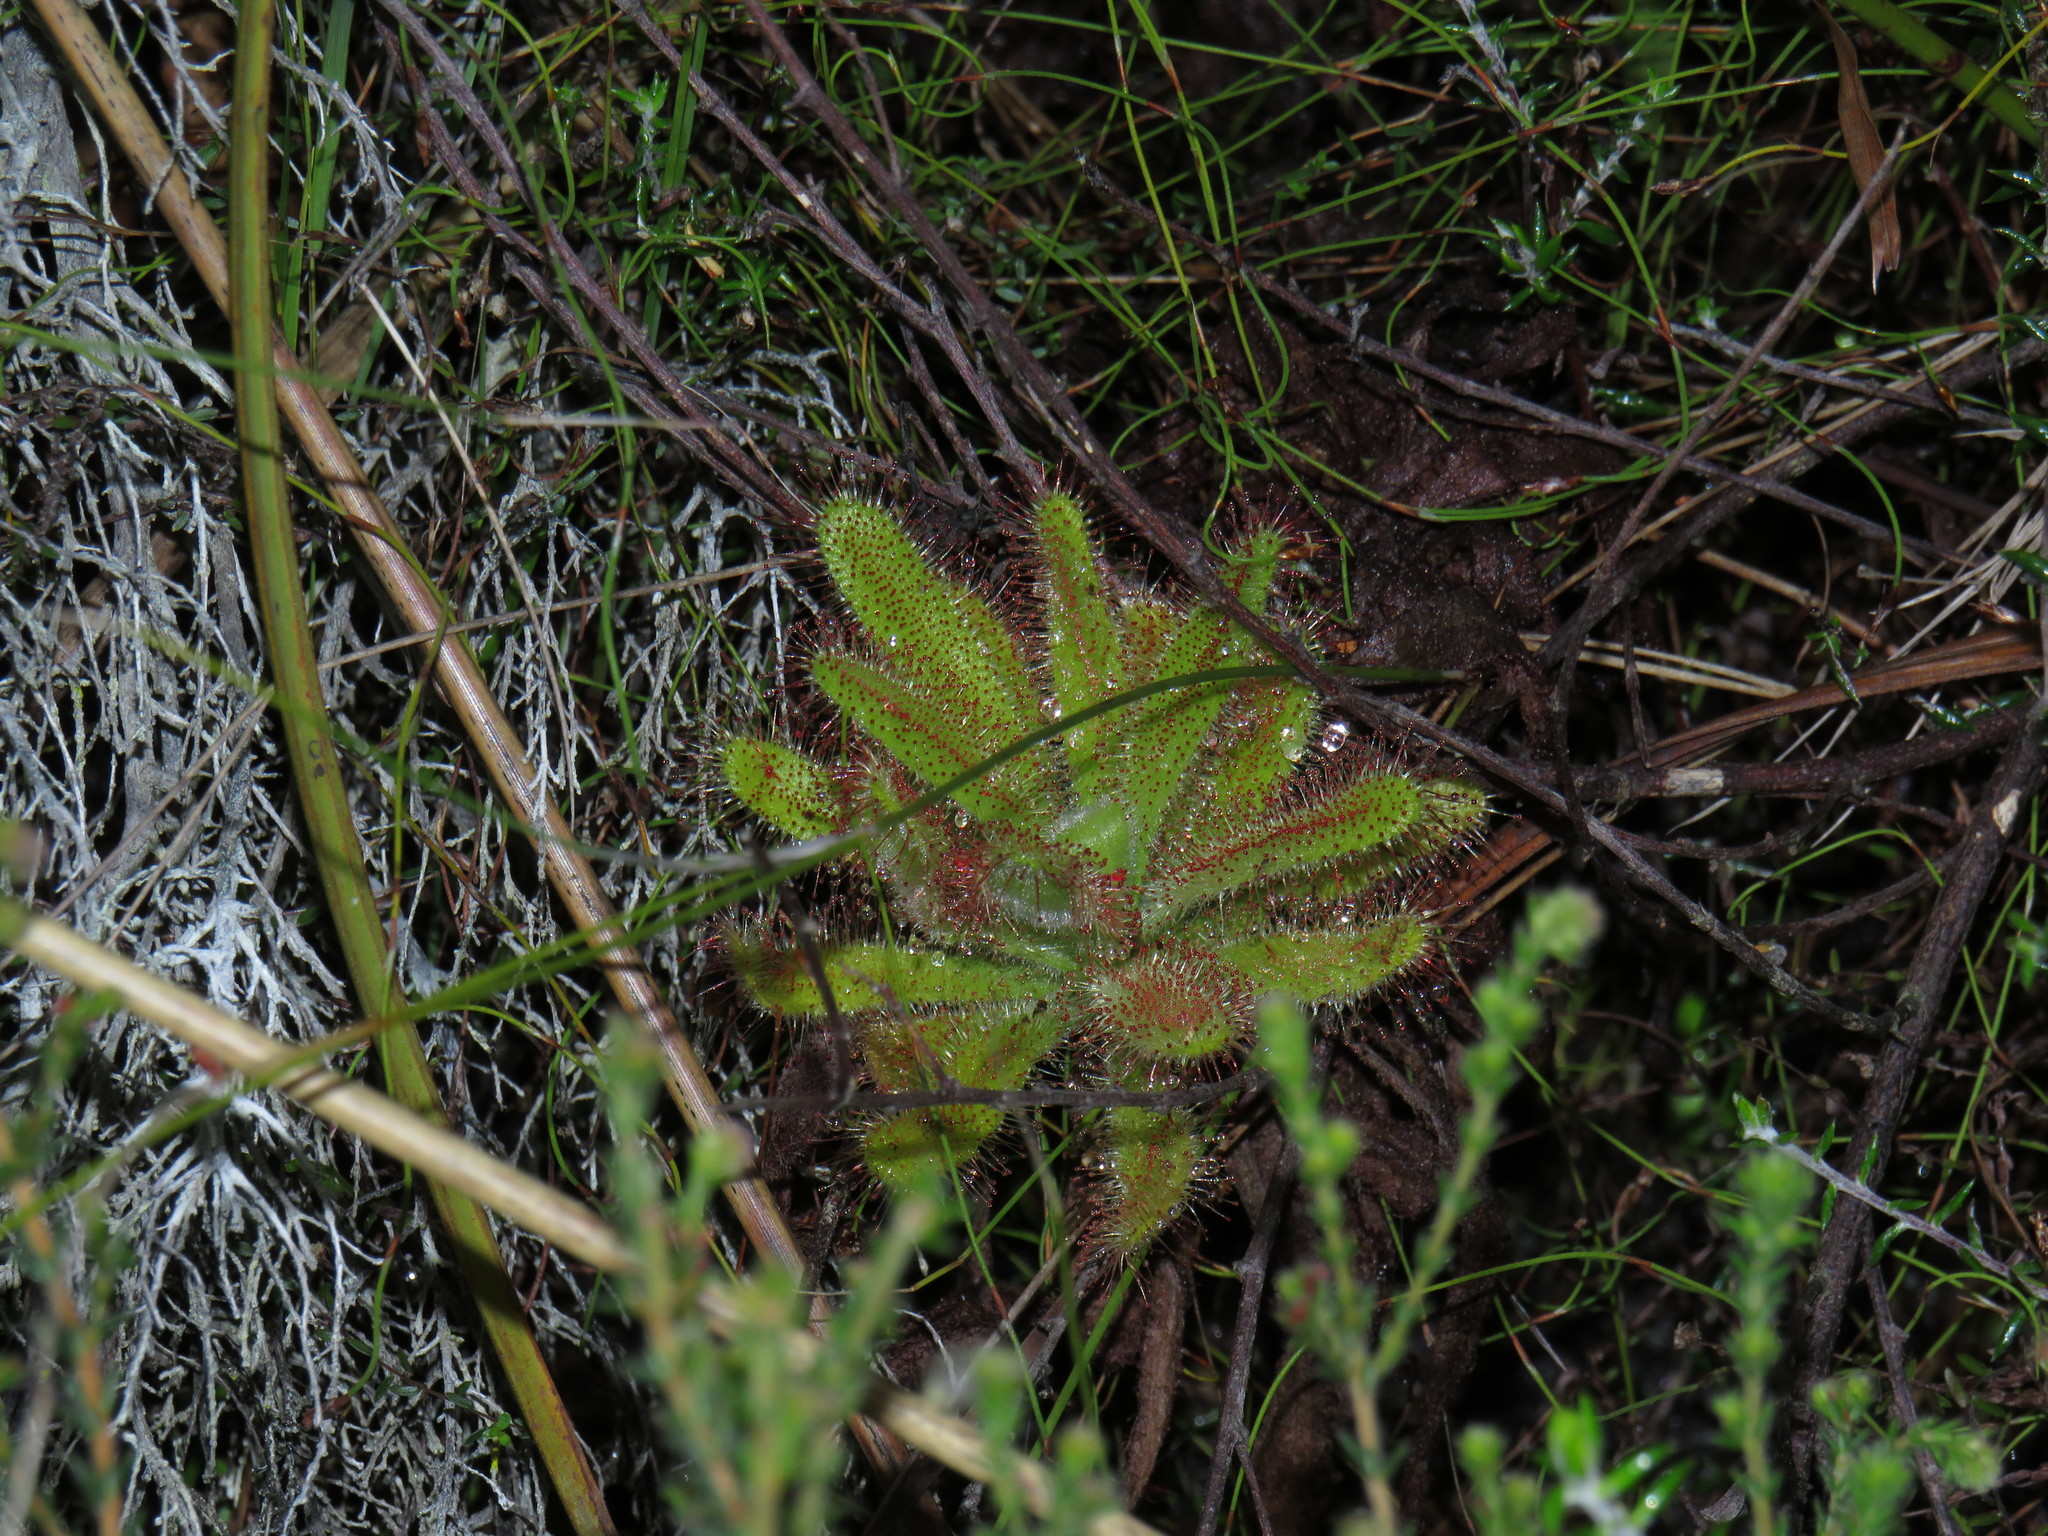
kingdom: Plantae
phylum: Tracheophyta
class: Magnoliopsida
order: Caryophyllales
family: Droseraceae
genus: Drosera
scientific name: Drosera hilaris
